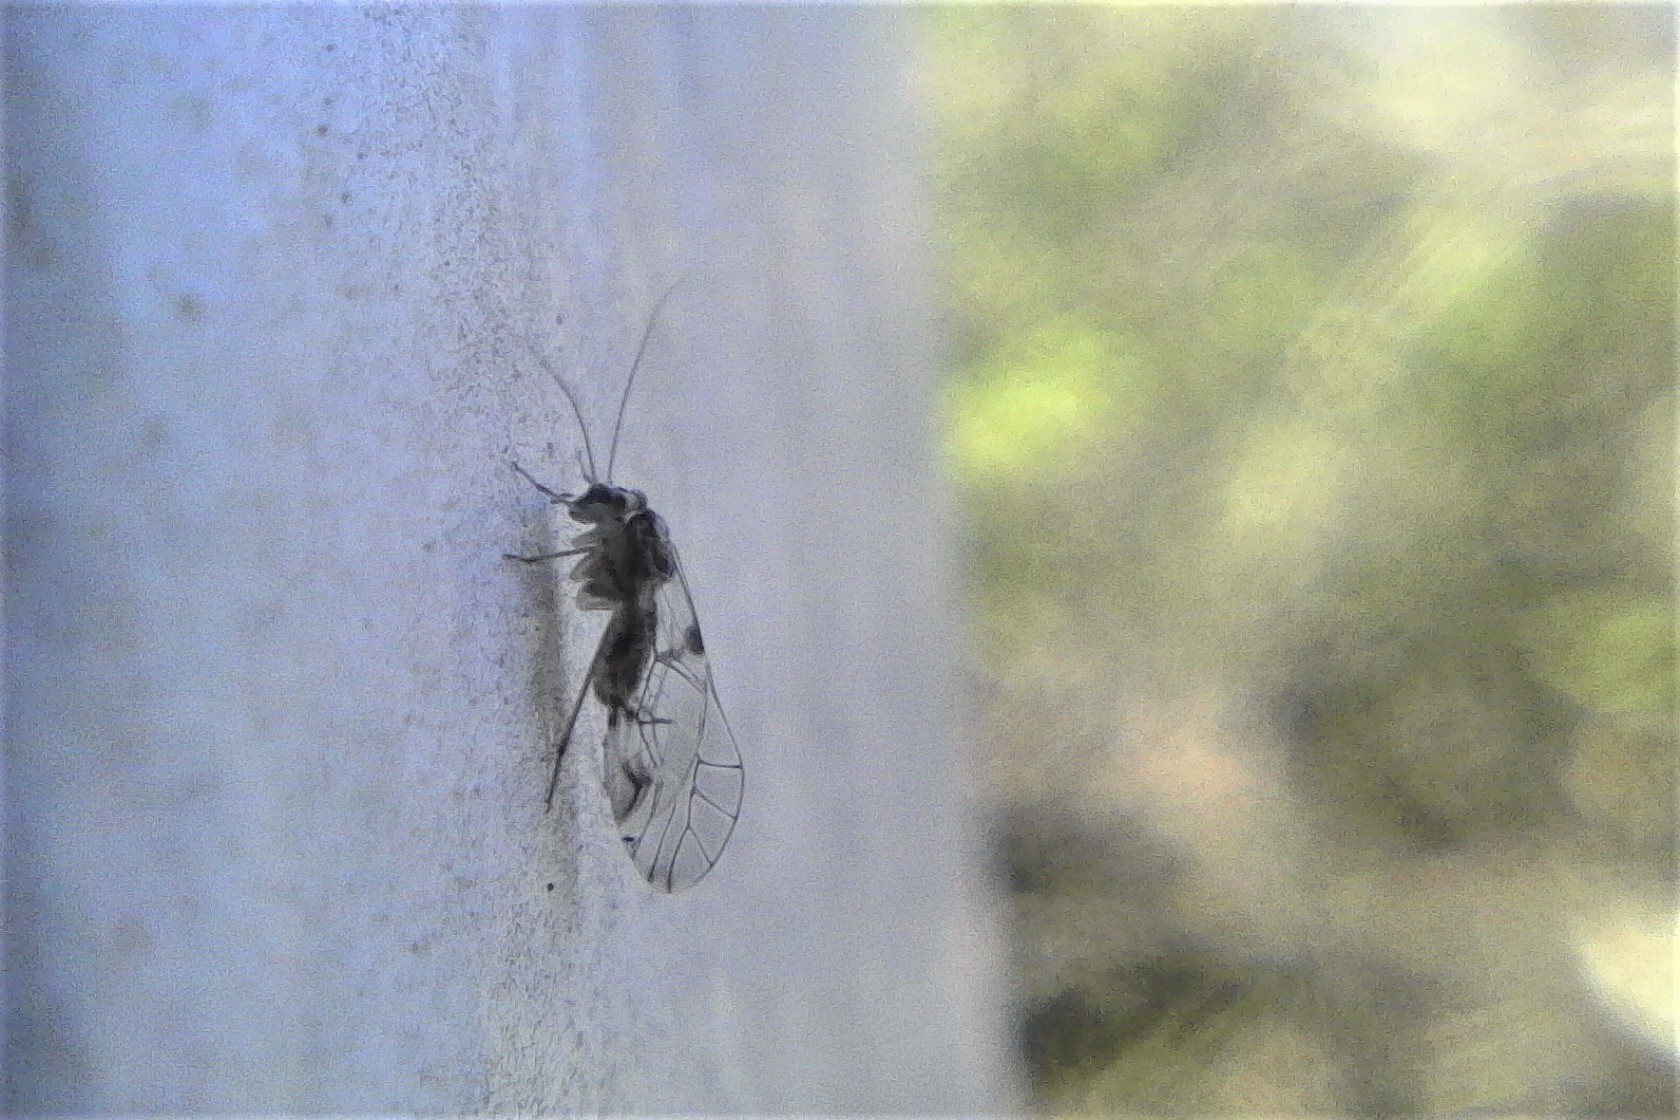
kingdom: Animalia
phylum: Arthropoda
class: Insecta
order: Psocodea
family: Psocidae
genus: Blaste
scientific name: Blaste tillyardi
